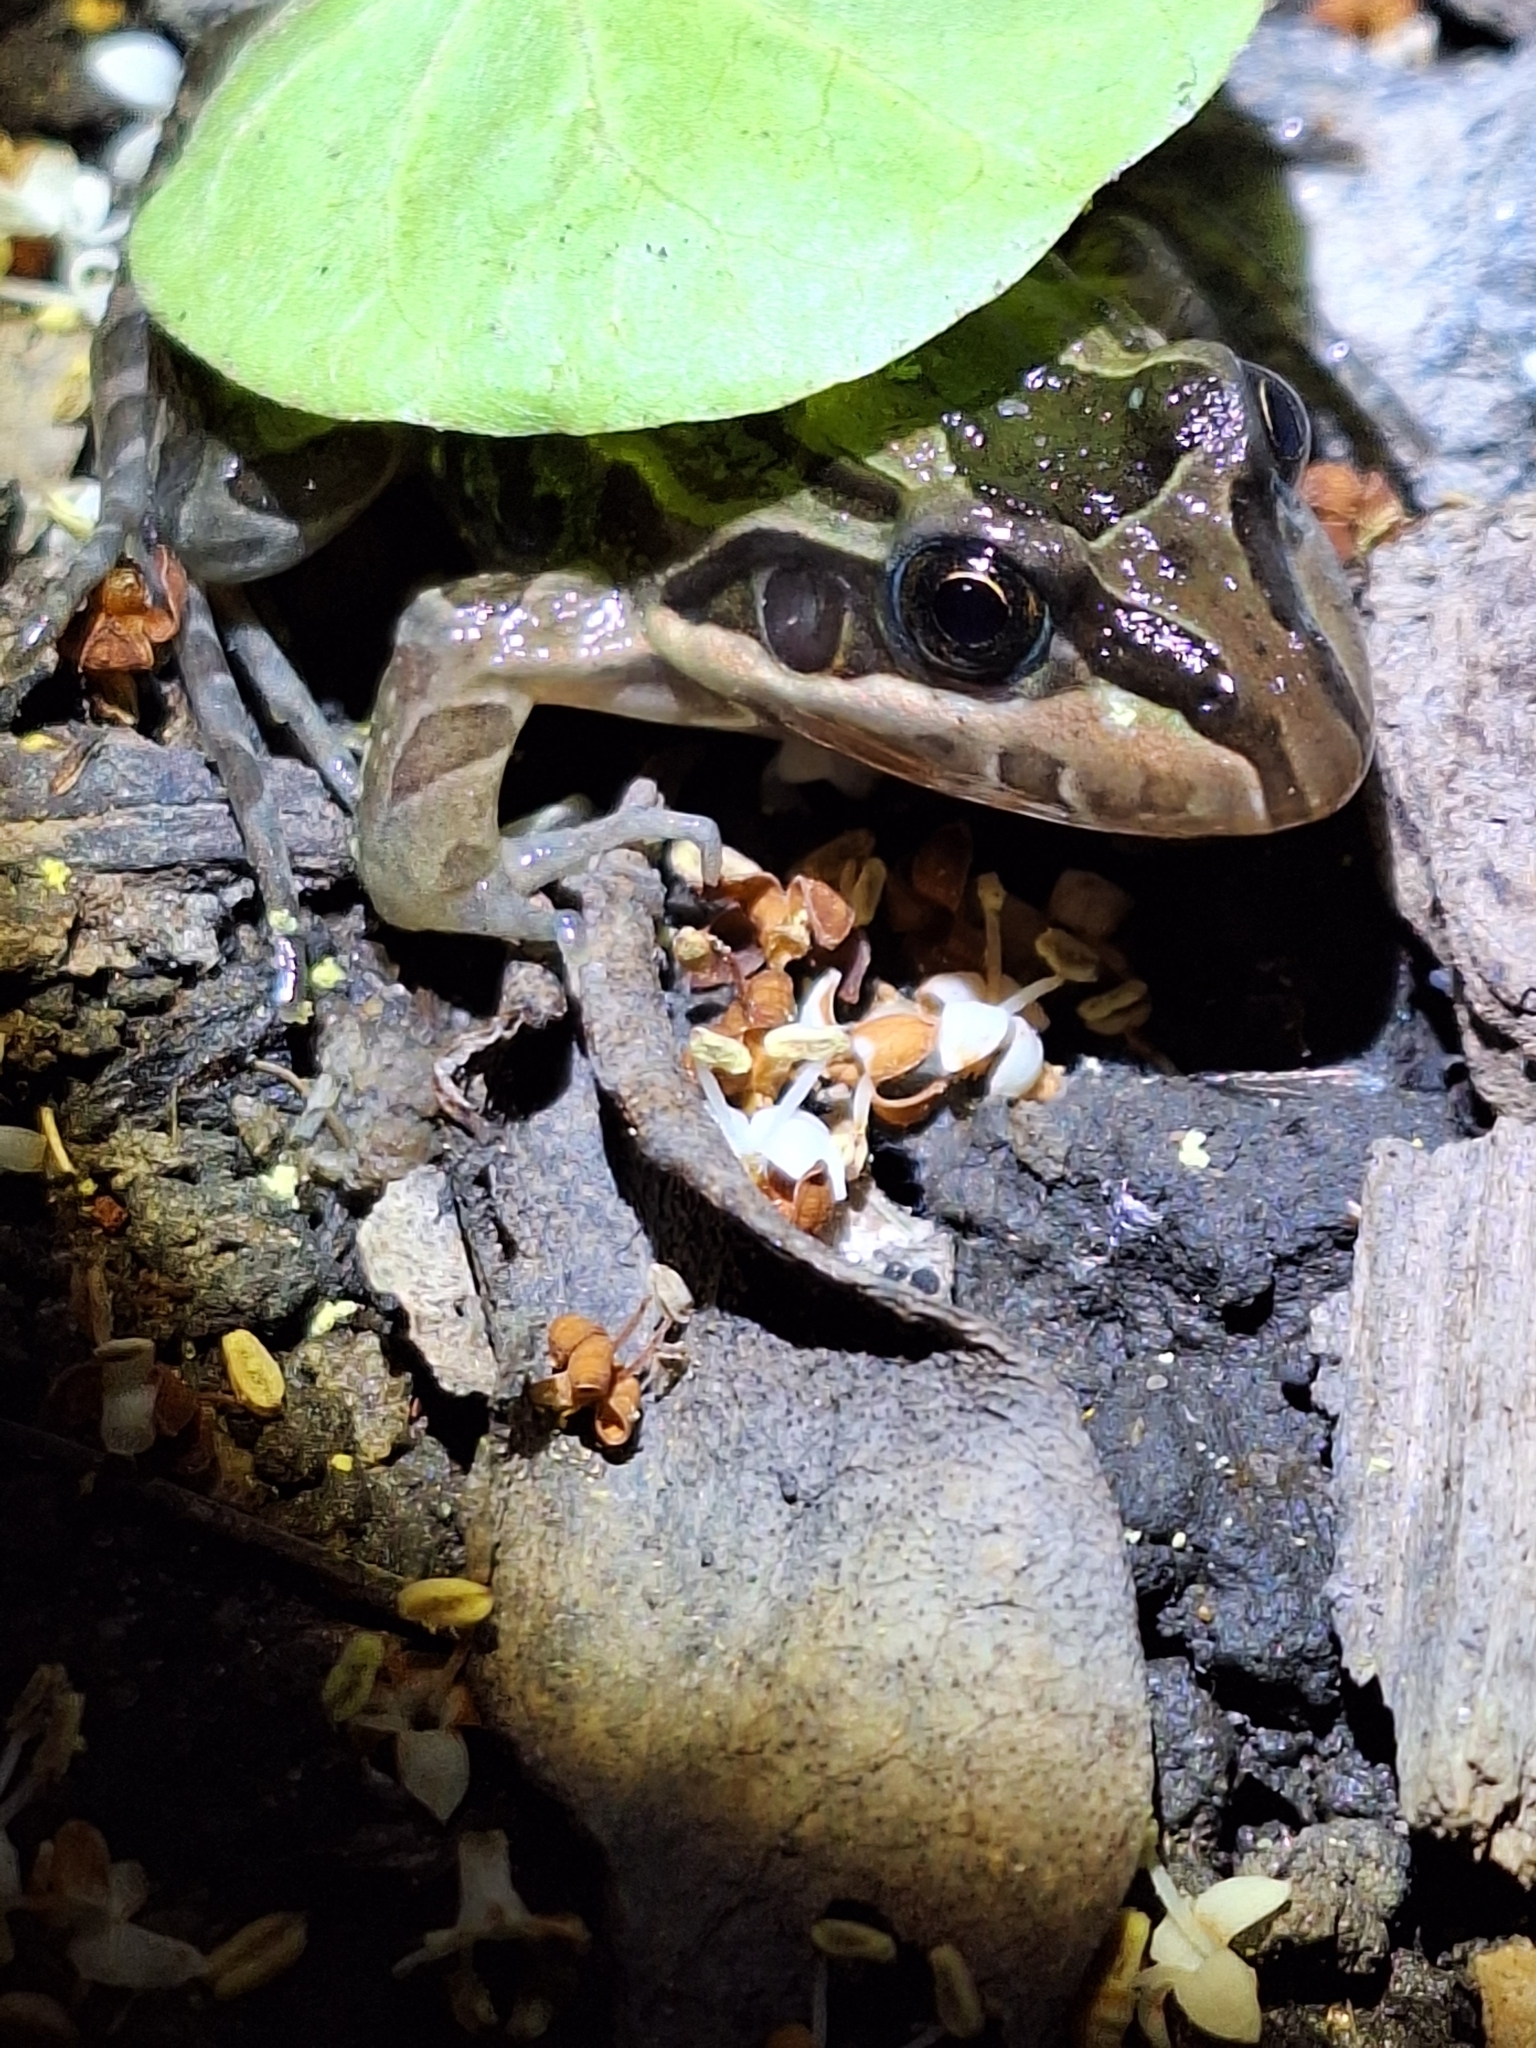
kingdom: Animalia
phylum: Chordata
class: Amphibia
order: Anura
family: Leptodactylidae
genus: Leptodactylus
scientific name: Leptodactylus luctator
